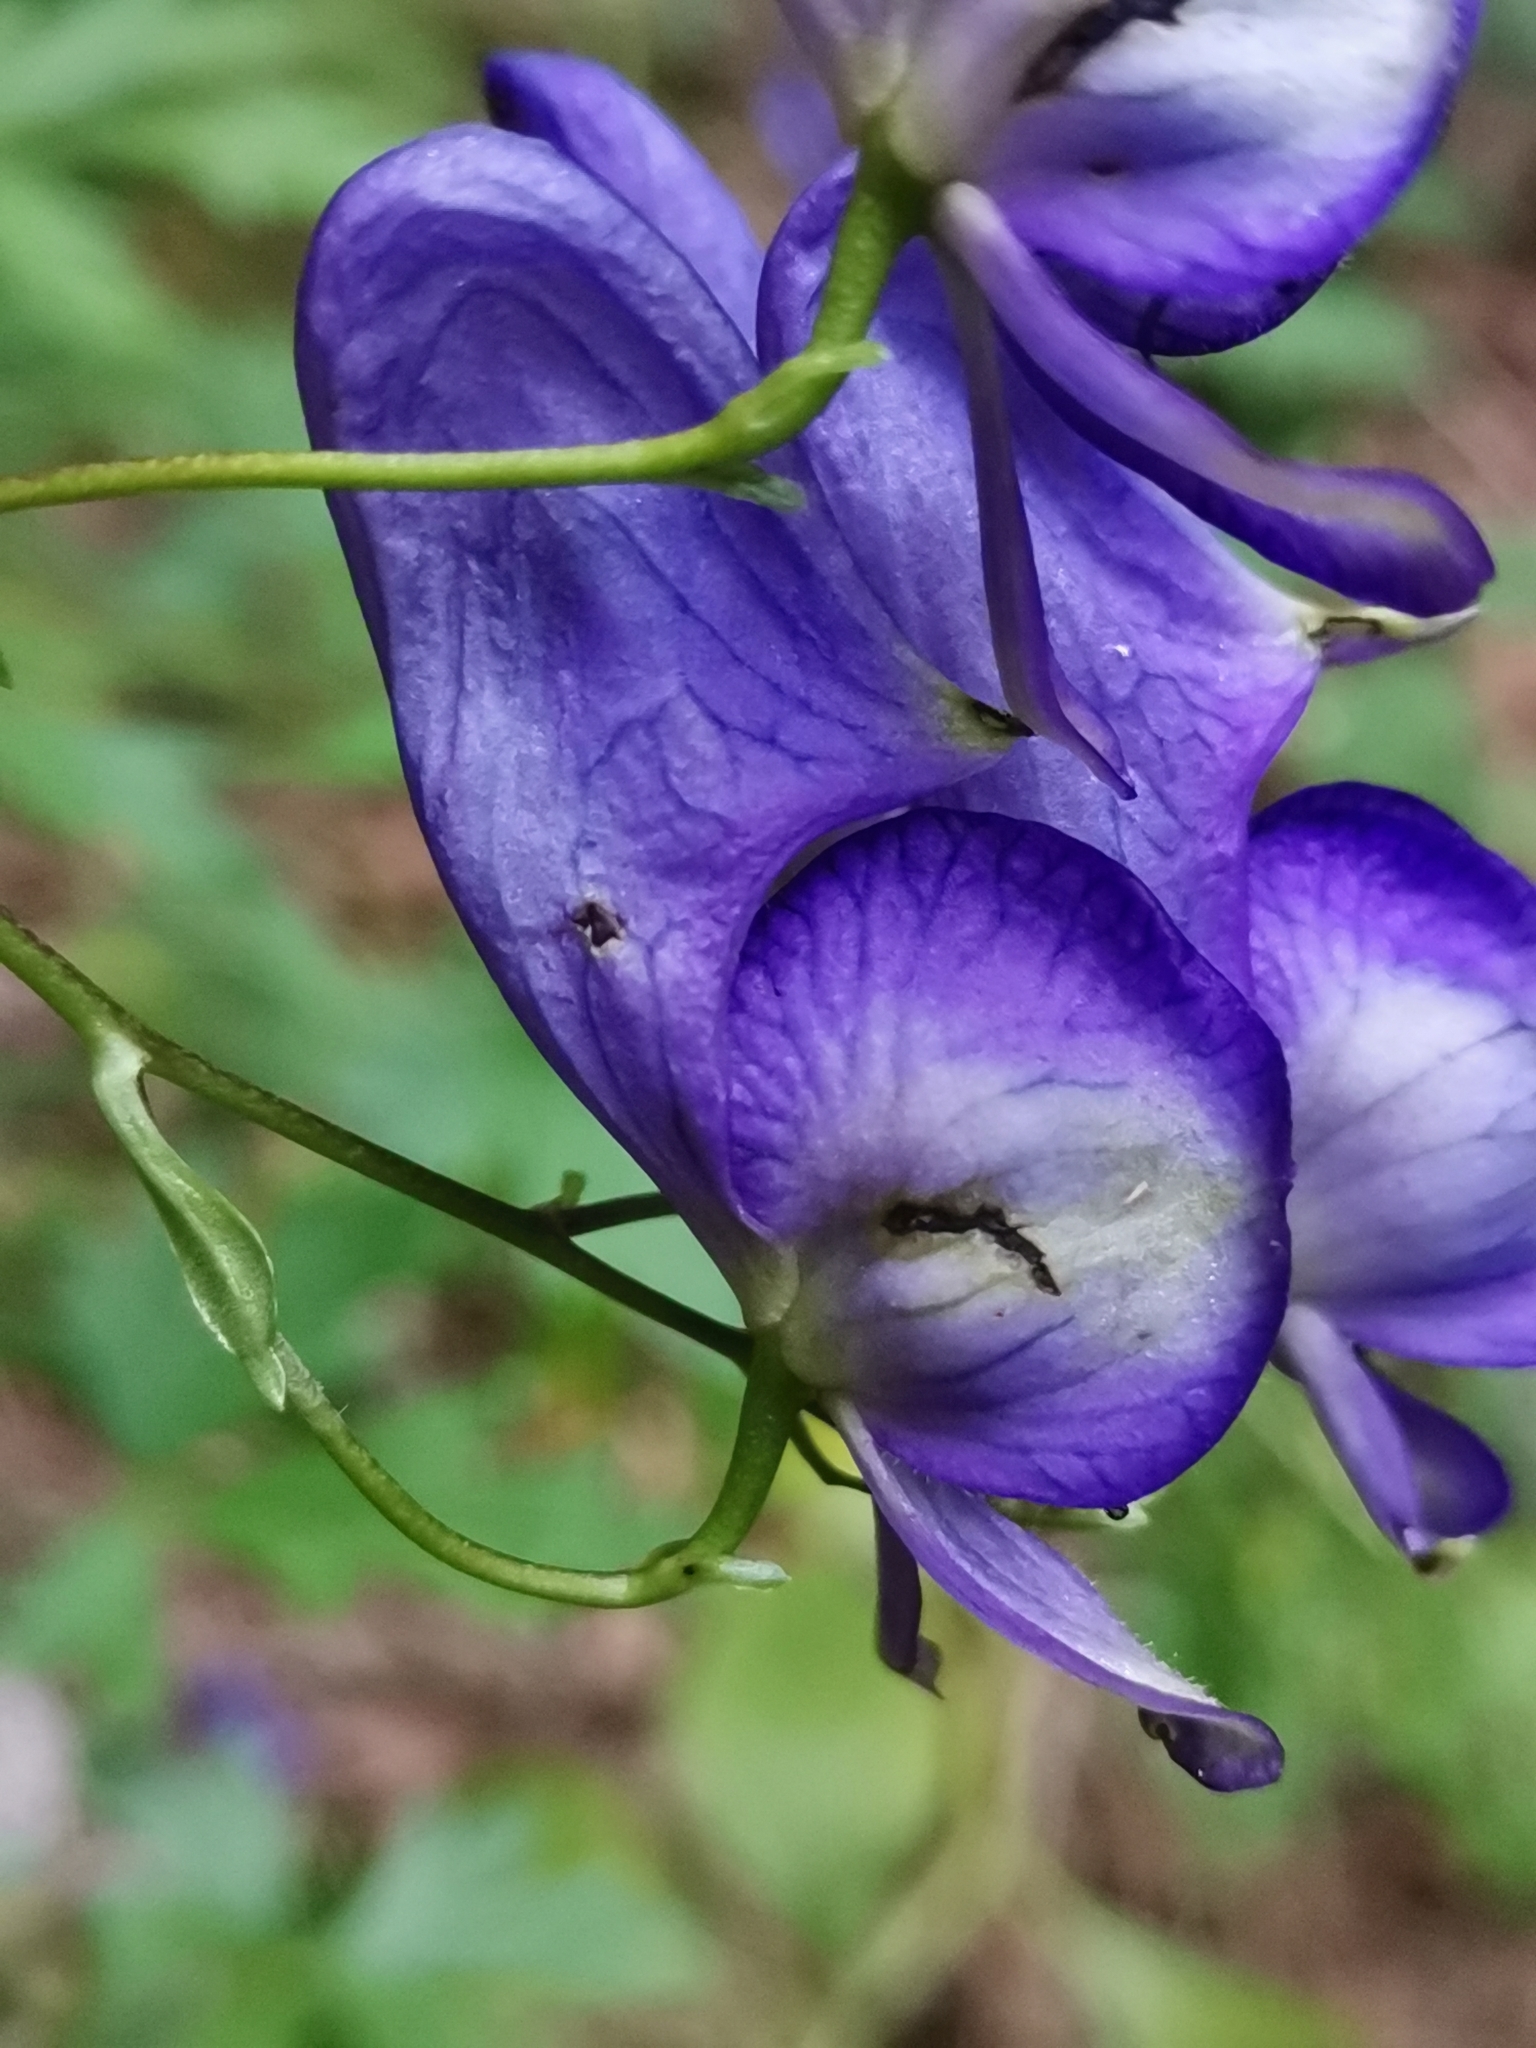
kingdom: Plantae
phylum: Tracheophyta
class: Magnoliopsida
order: Ranunculales
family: Ranunculaceae
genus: Aconitum
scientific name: Aconitum variegatum
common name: Manchurian monkshood
